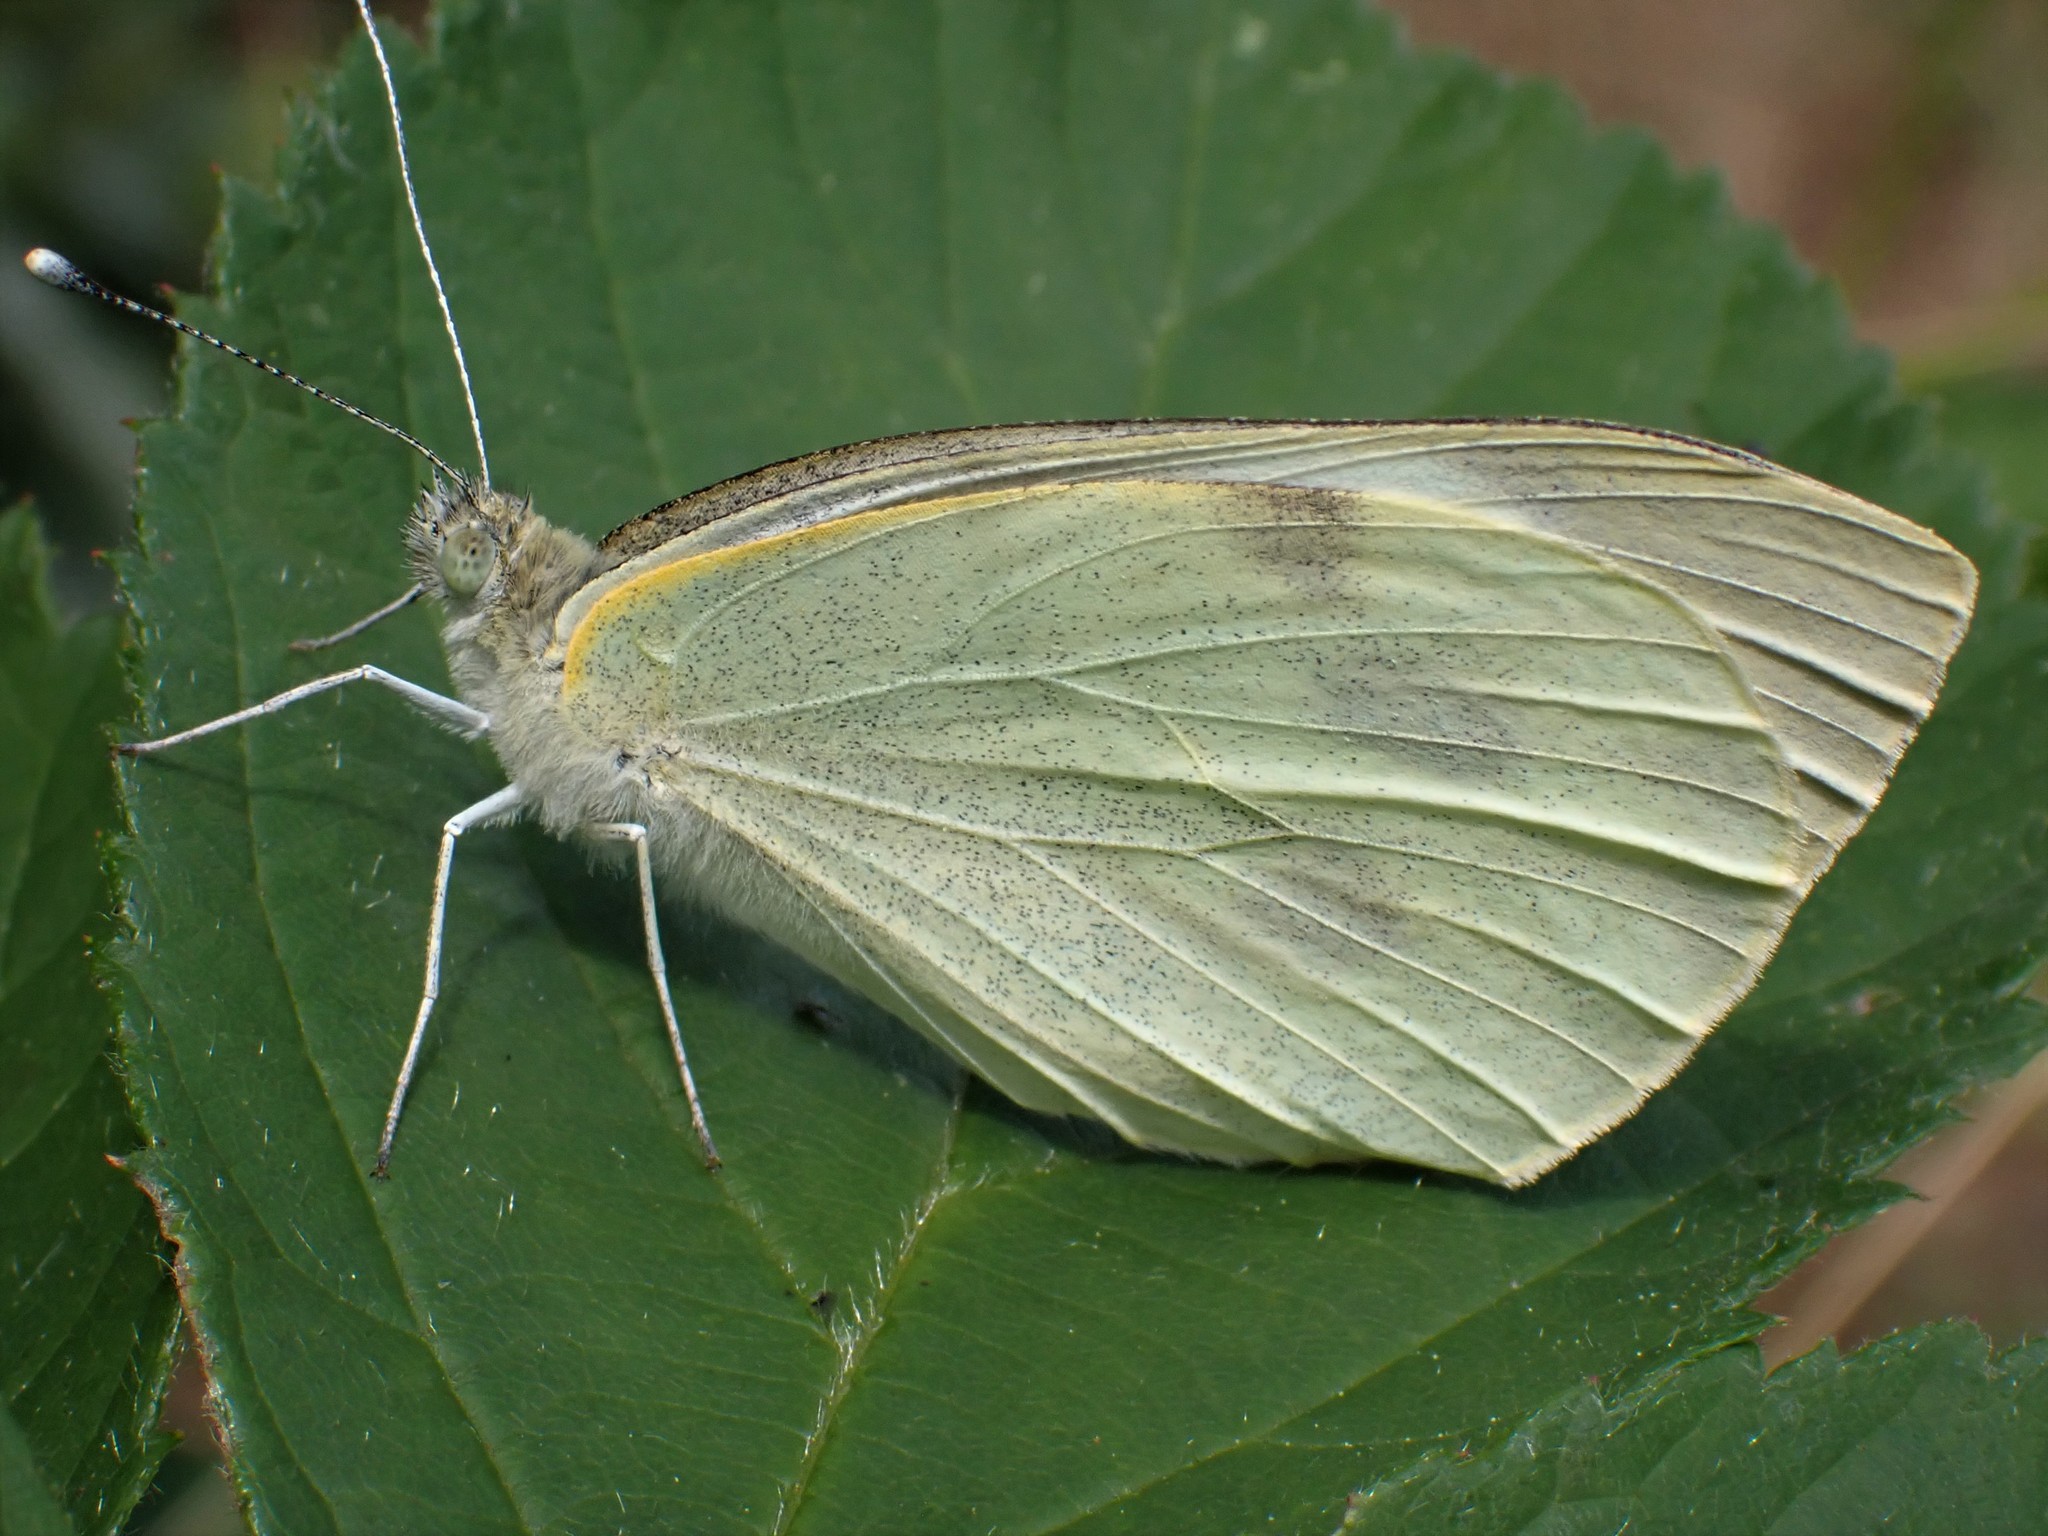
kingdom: Animalia
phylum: Arthropoda
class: Insecta
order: Lepidoptera
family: Pieridae
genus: Pieris
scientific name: Pieris brassicae
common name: Large white
